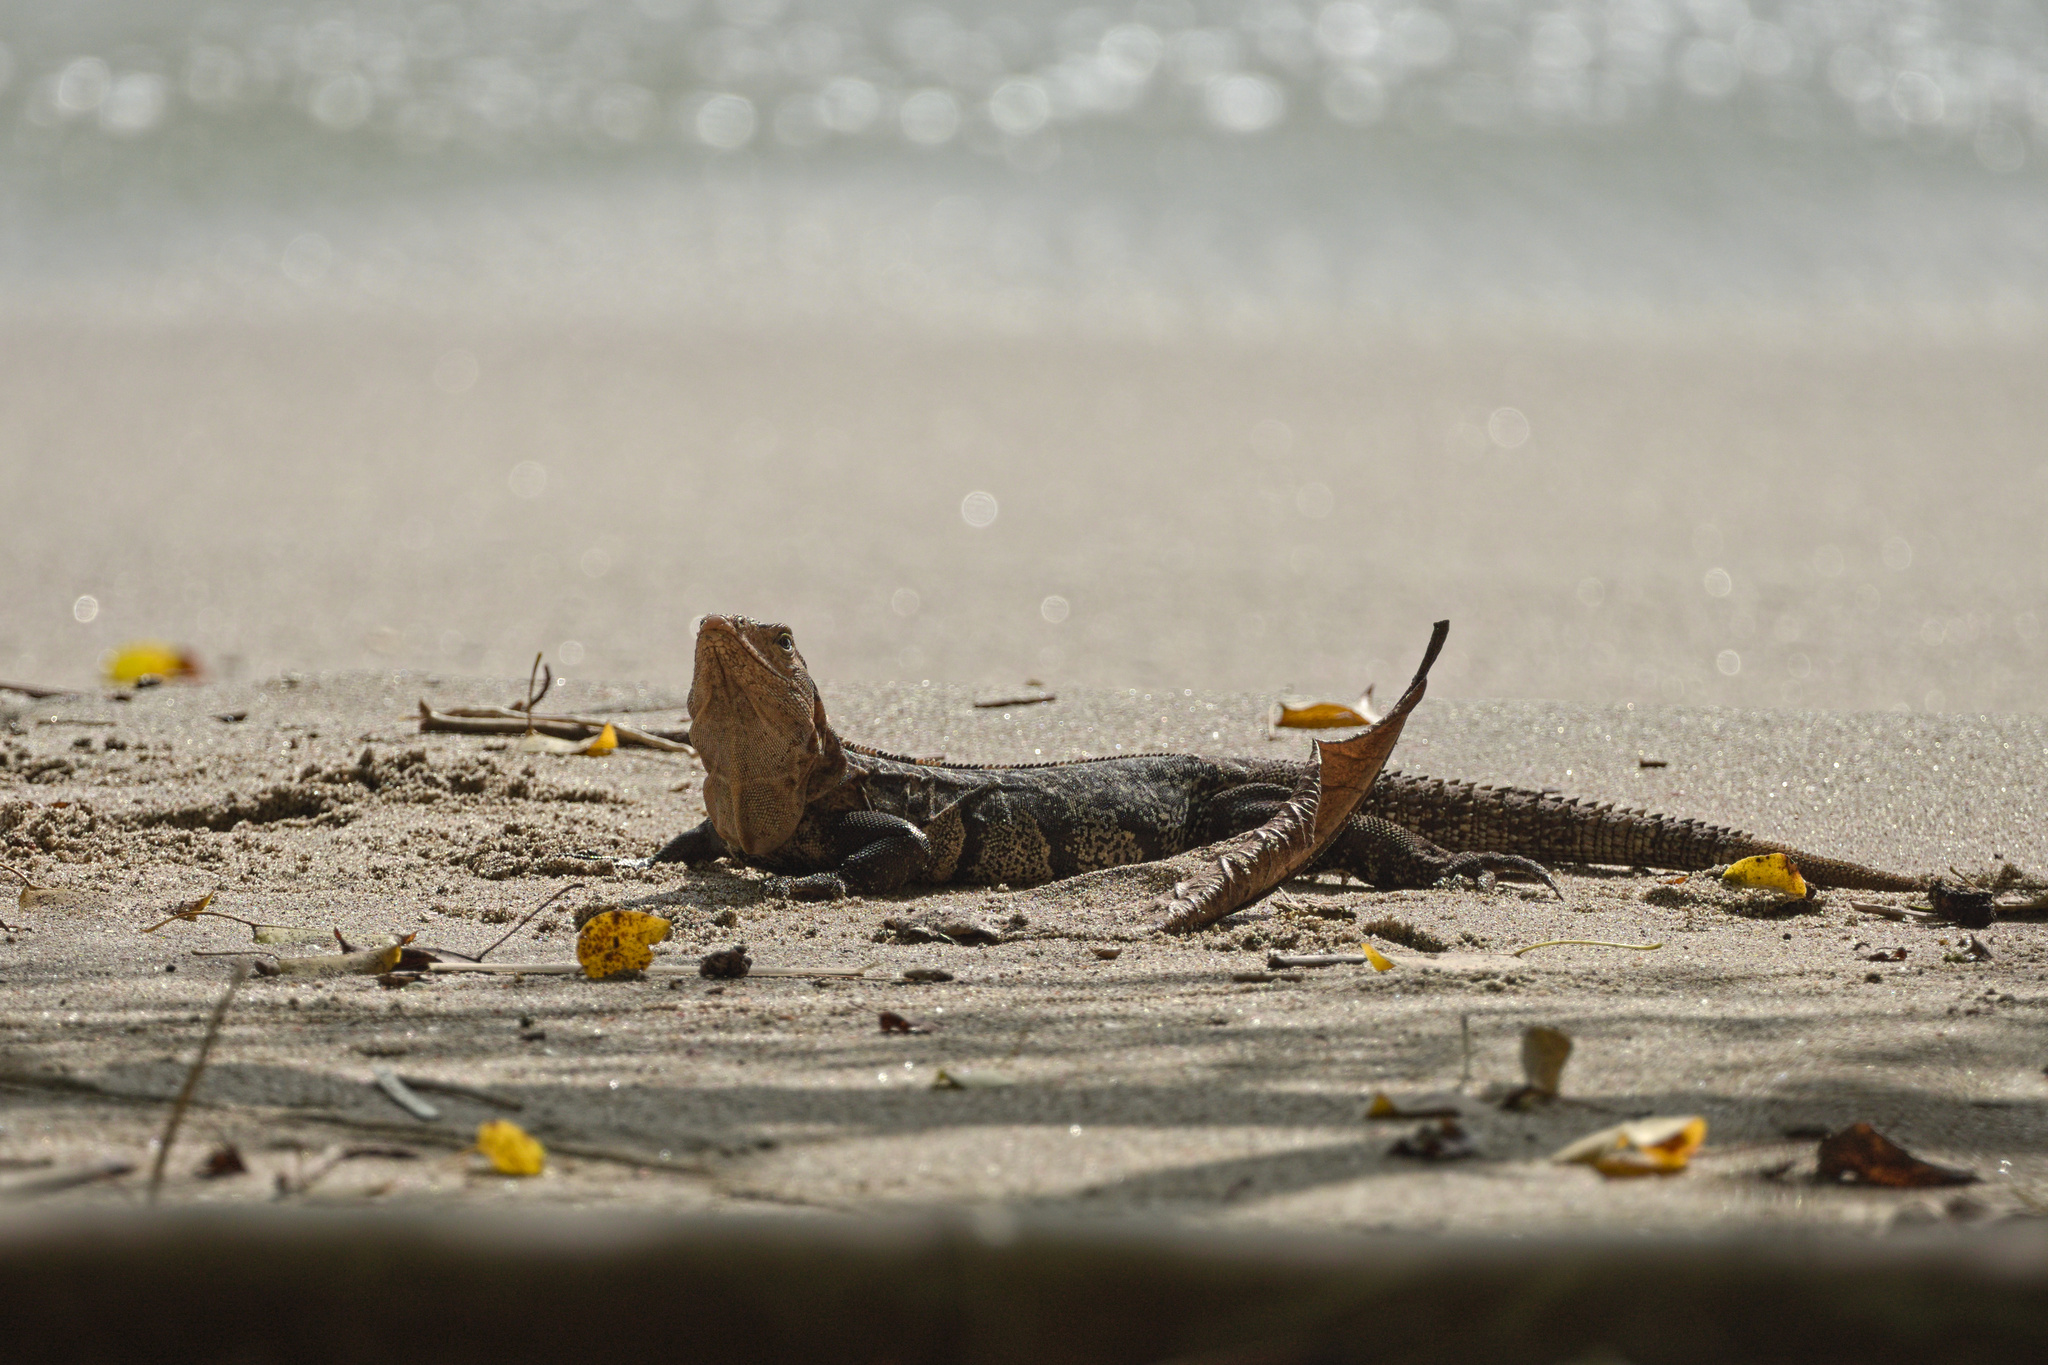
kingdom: Animalia
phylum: Chordata
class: Squamata
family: Iguanidae
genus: Ctenosaura
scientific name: Ctenosaura similis
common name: Black spiny-tailed iguana
